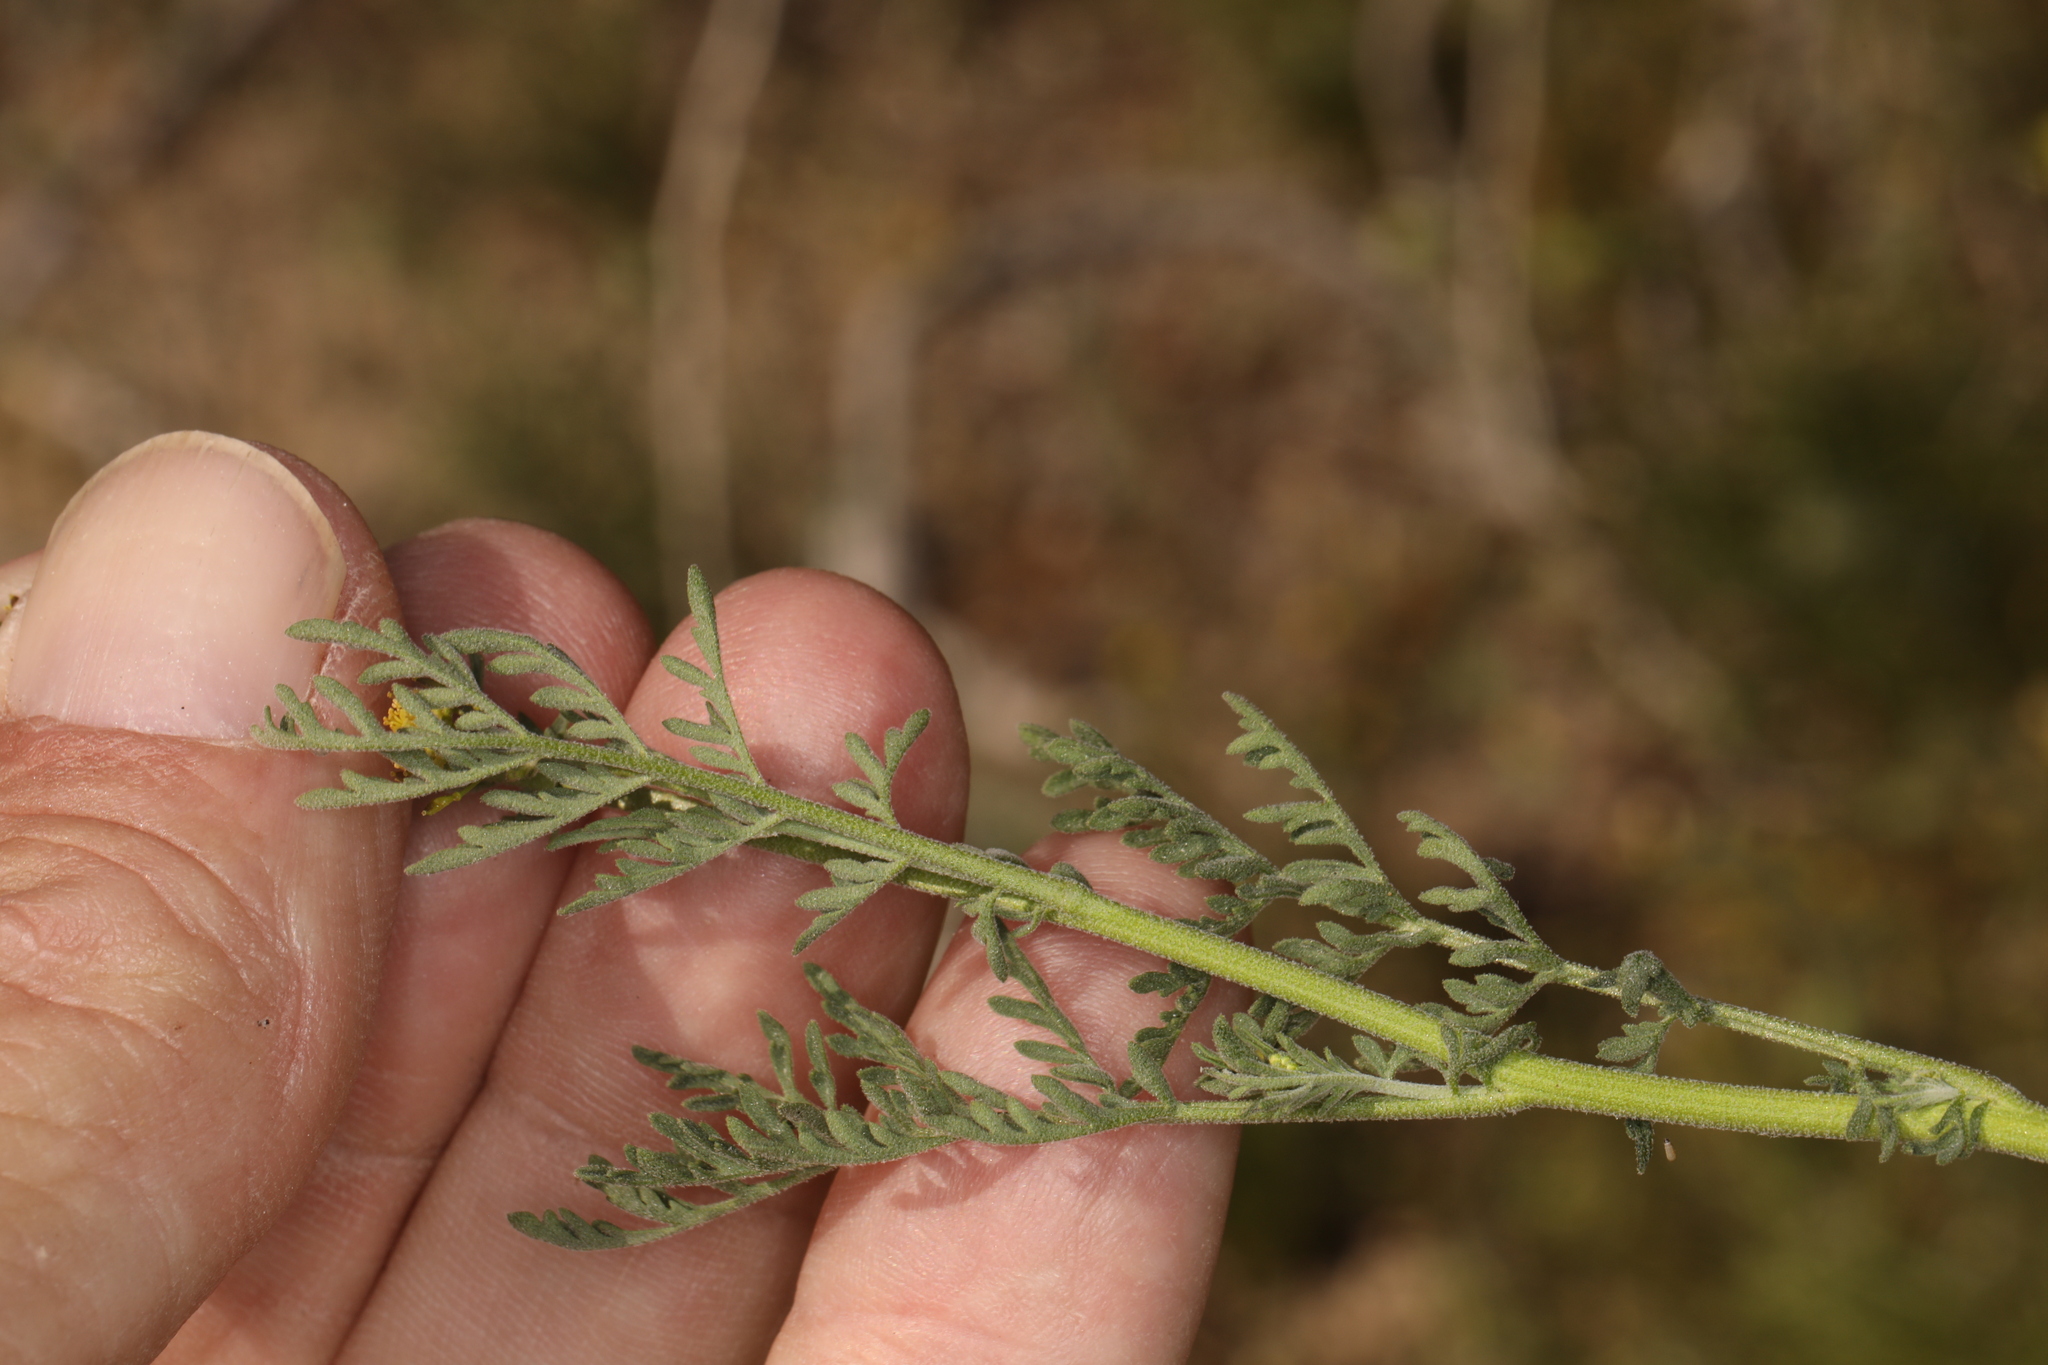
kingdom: Plantae
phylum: Tracheophyta
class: Magnoliopsida
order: Brassicales
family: Brassicaceae
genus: Descurainia
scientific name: Descurainia pinnata
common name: Western tansy mustard
